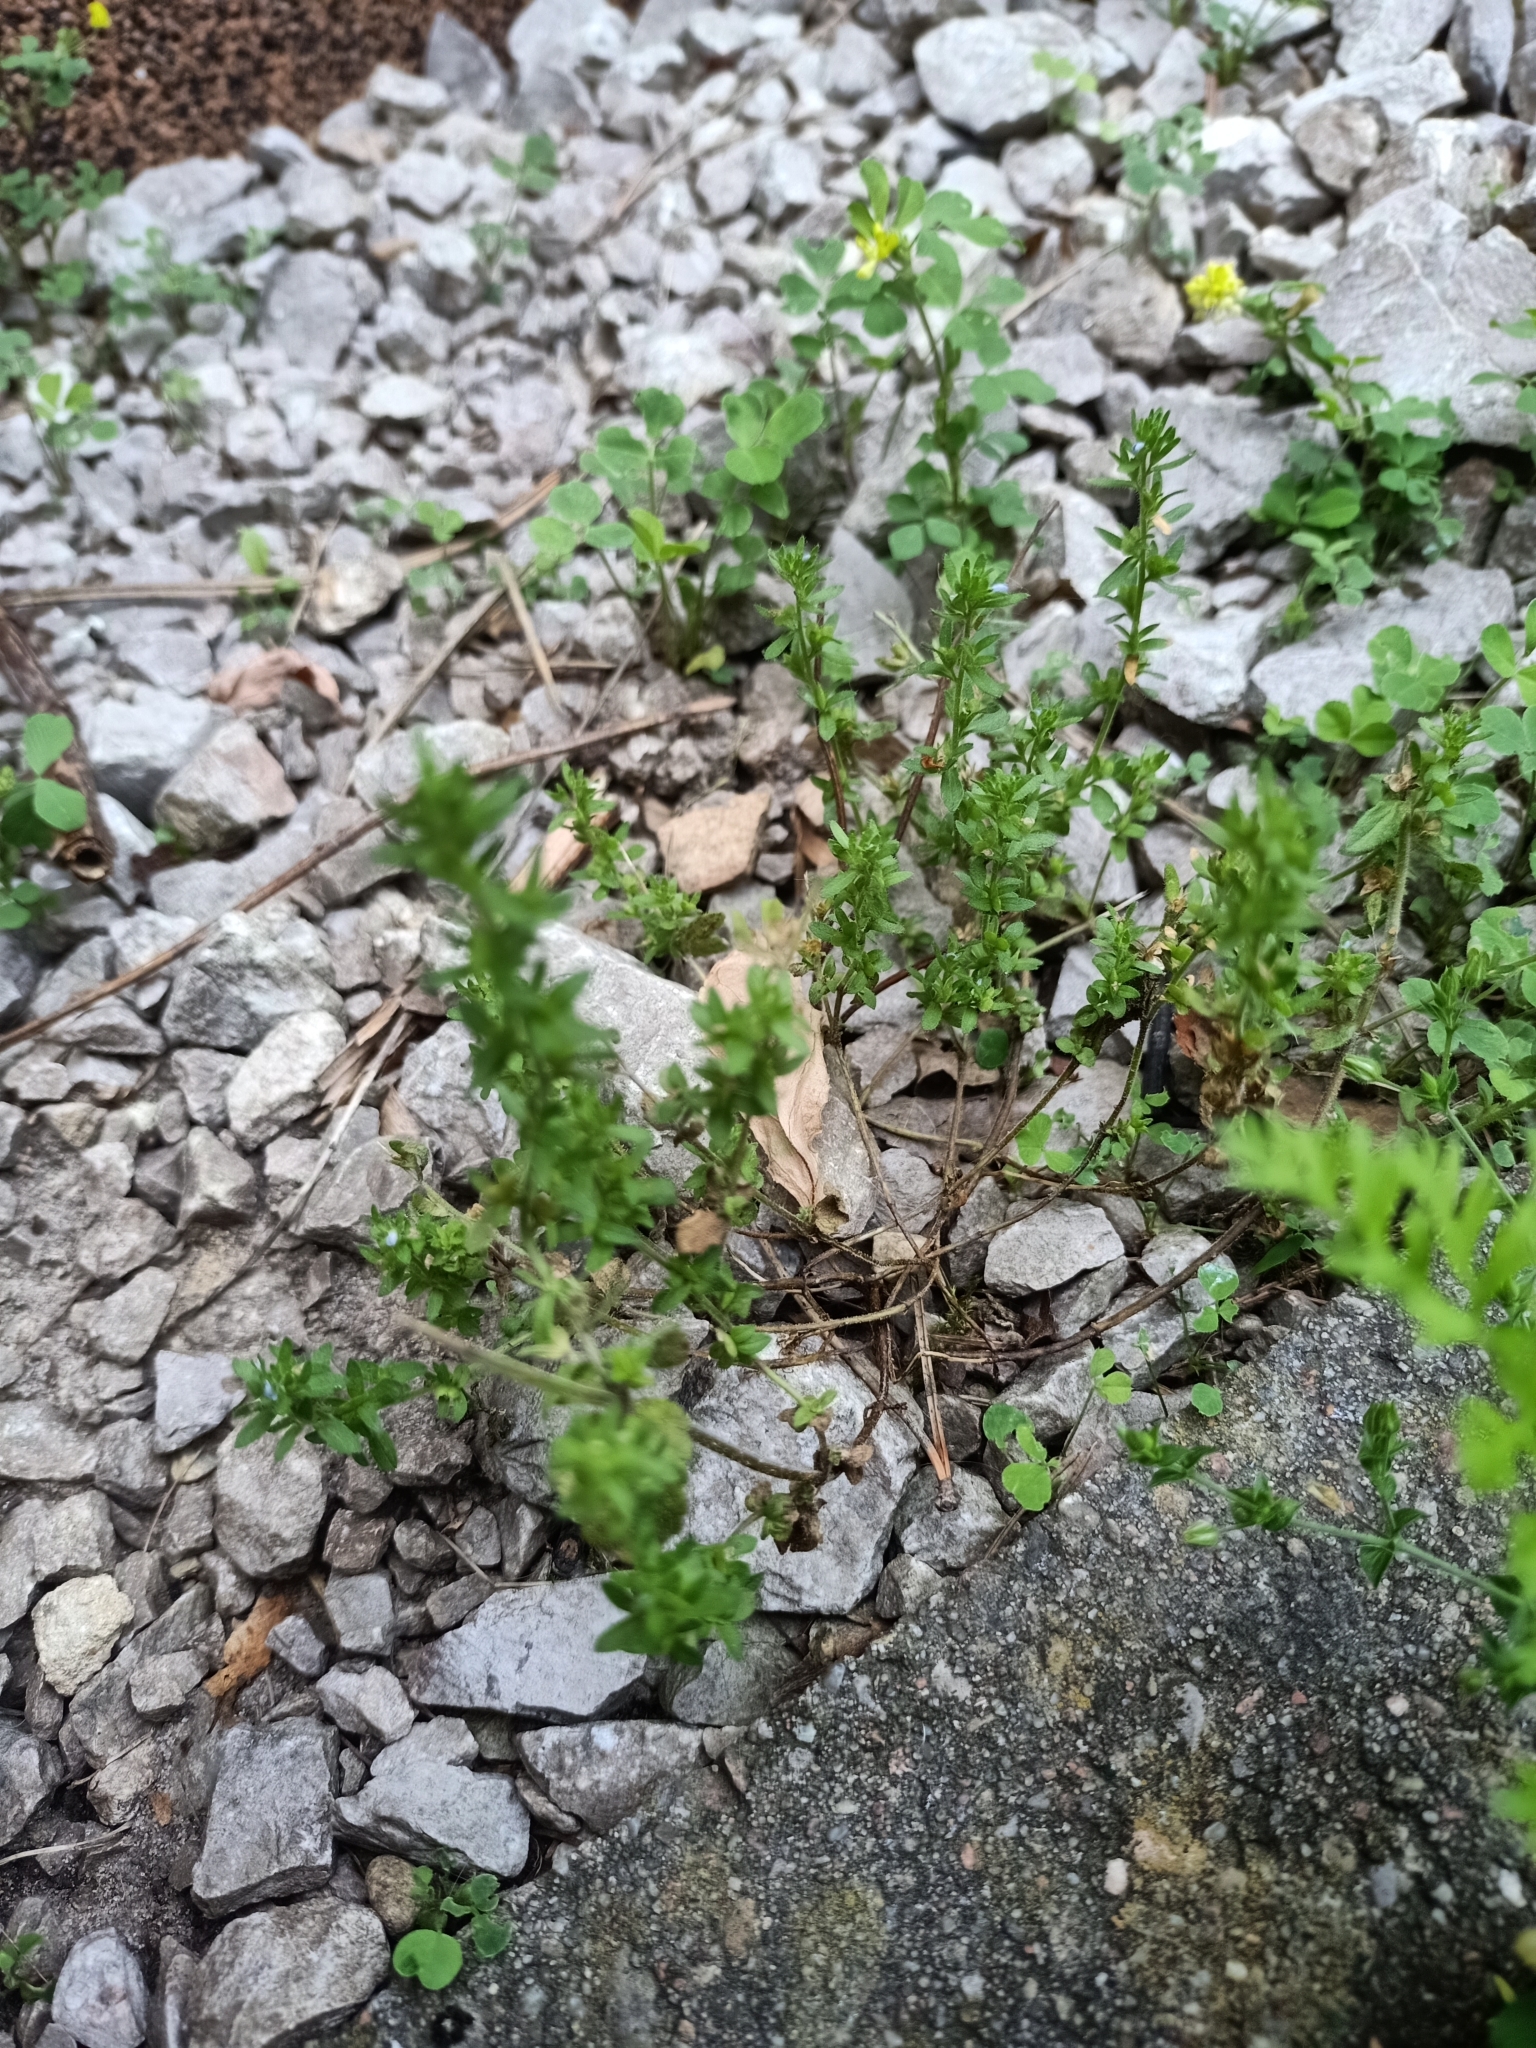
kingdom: Plantae
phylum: Tracheophyta
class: Magnoliopsida
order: Lamiales
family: Plantaginaceae
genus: Veronica
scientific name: Veronica serpyllifolia
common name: Thyme-leaved speedwell
